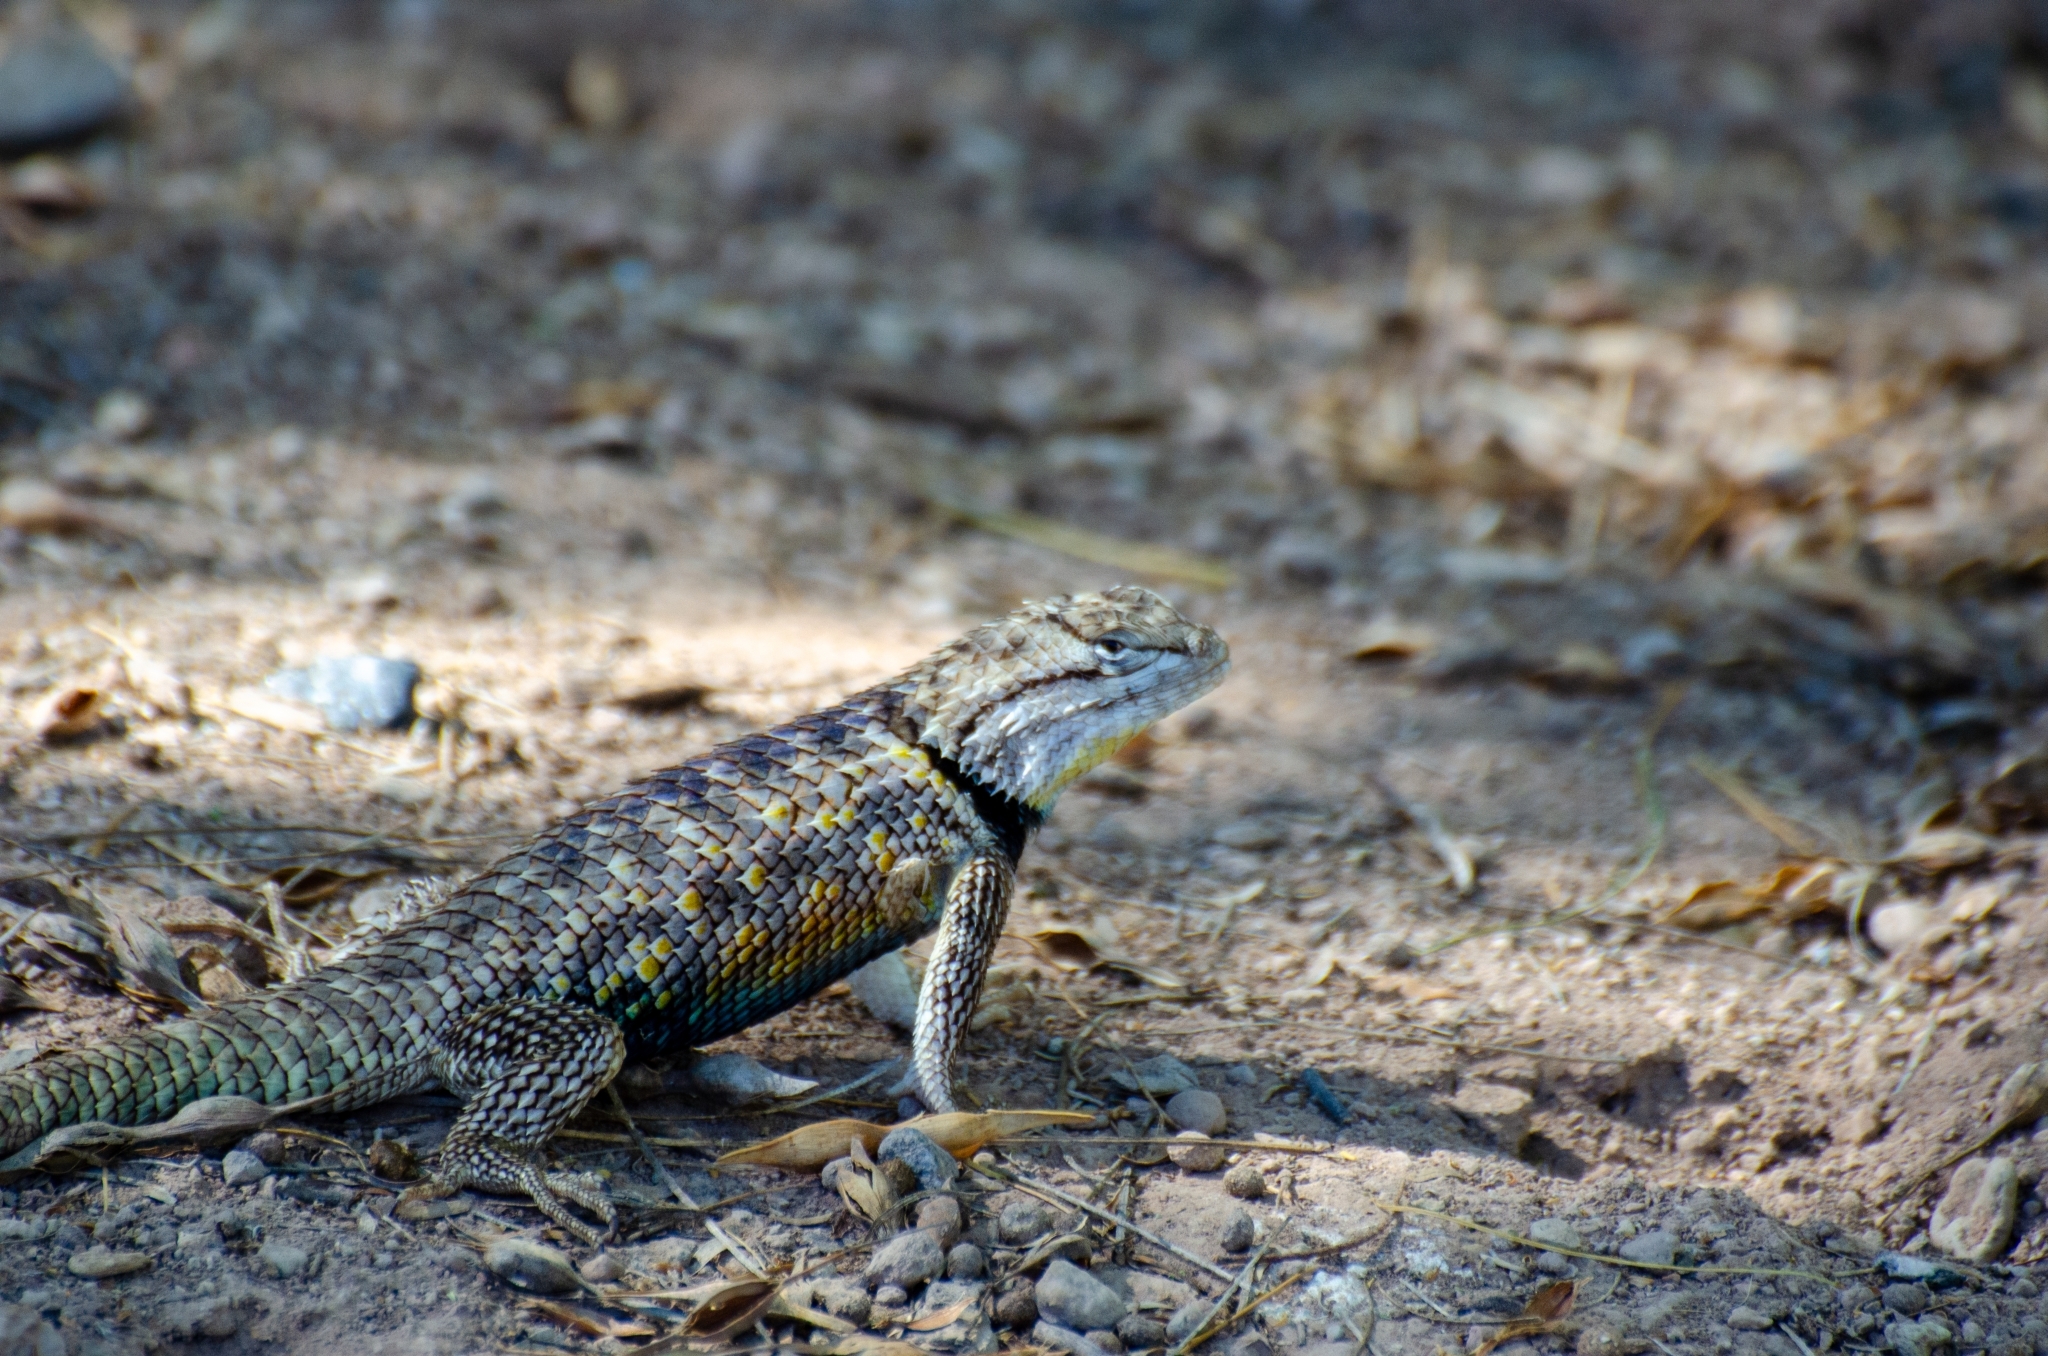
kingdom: Animalia
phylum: Chordata
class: Squamata
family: Phrynosomatidae
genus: Sceloporus
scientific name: Sceloporus magister
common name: Desert spiny lizard
